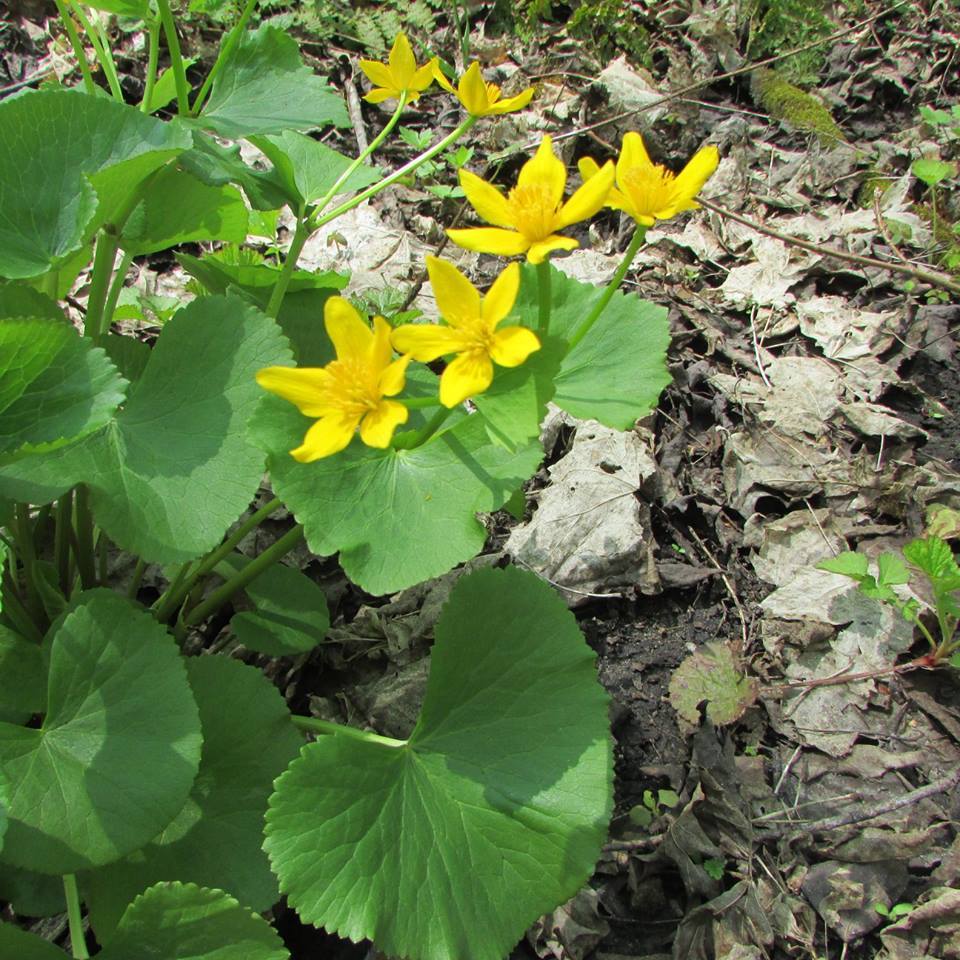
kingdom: Plantae
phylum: Tracheophyta
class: Magnoliopsida
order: Ranunculales
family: Ranunculaceae
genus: Caltha
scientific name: Caltha palustris
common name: Marsh marigold
